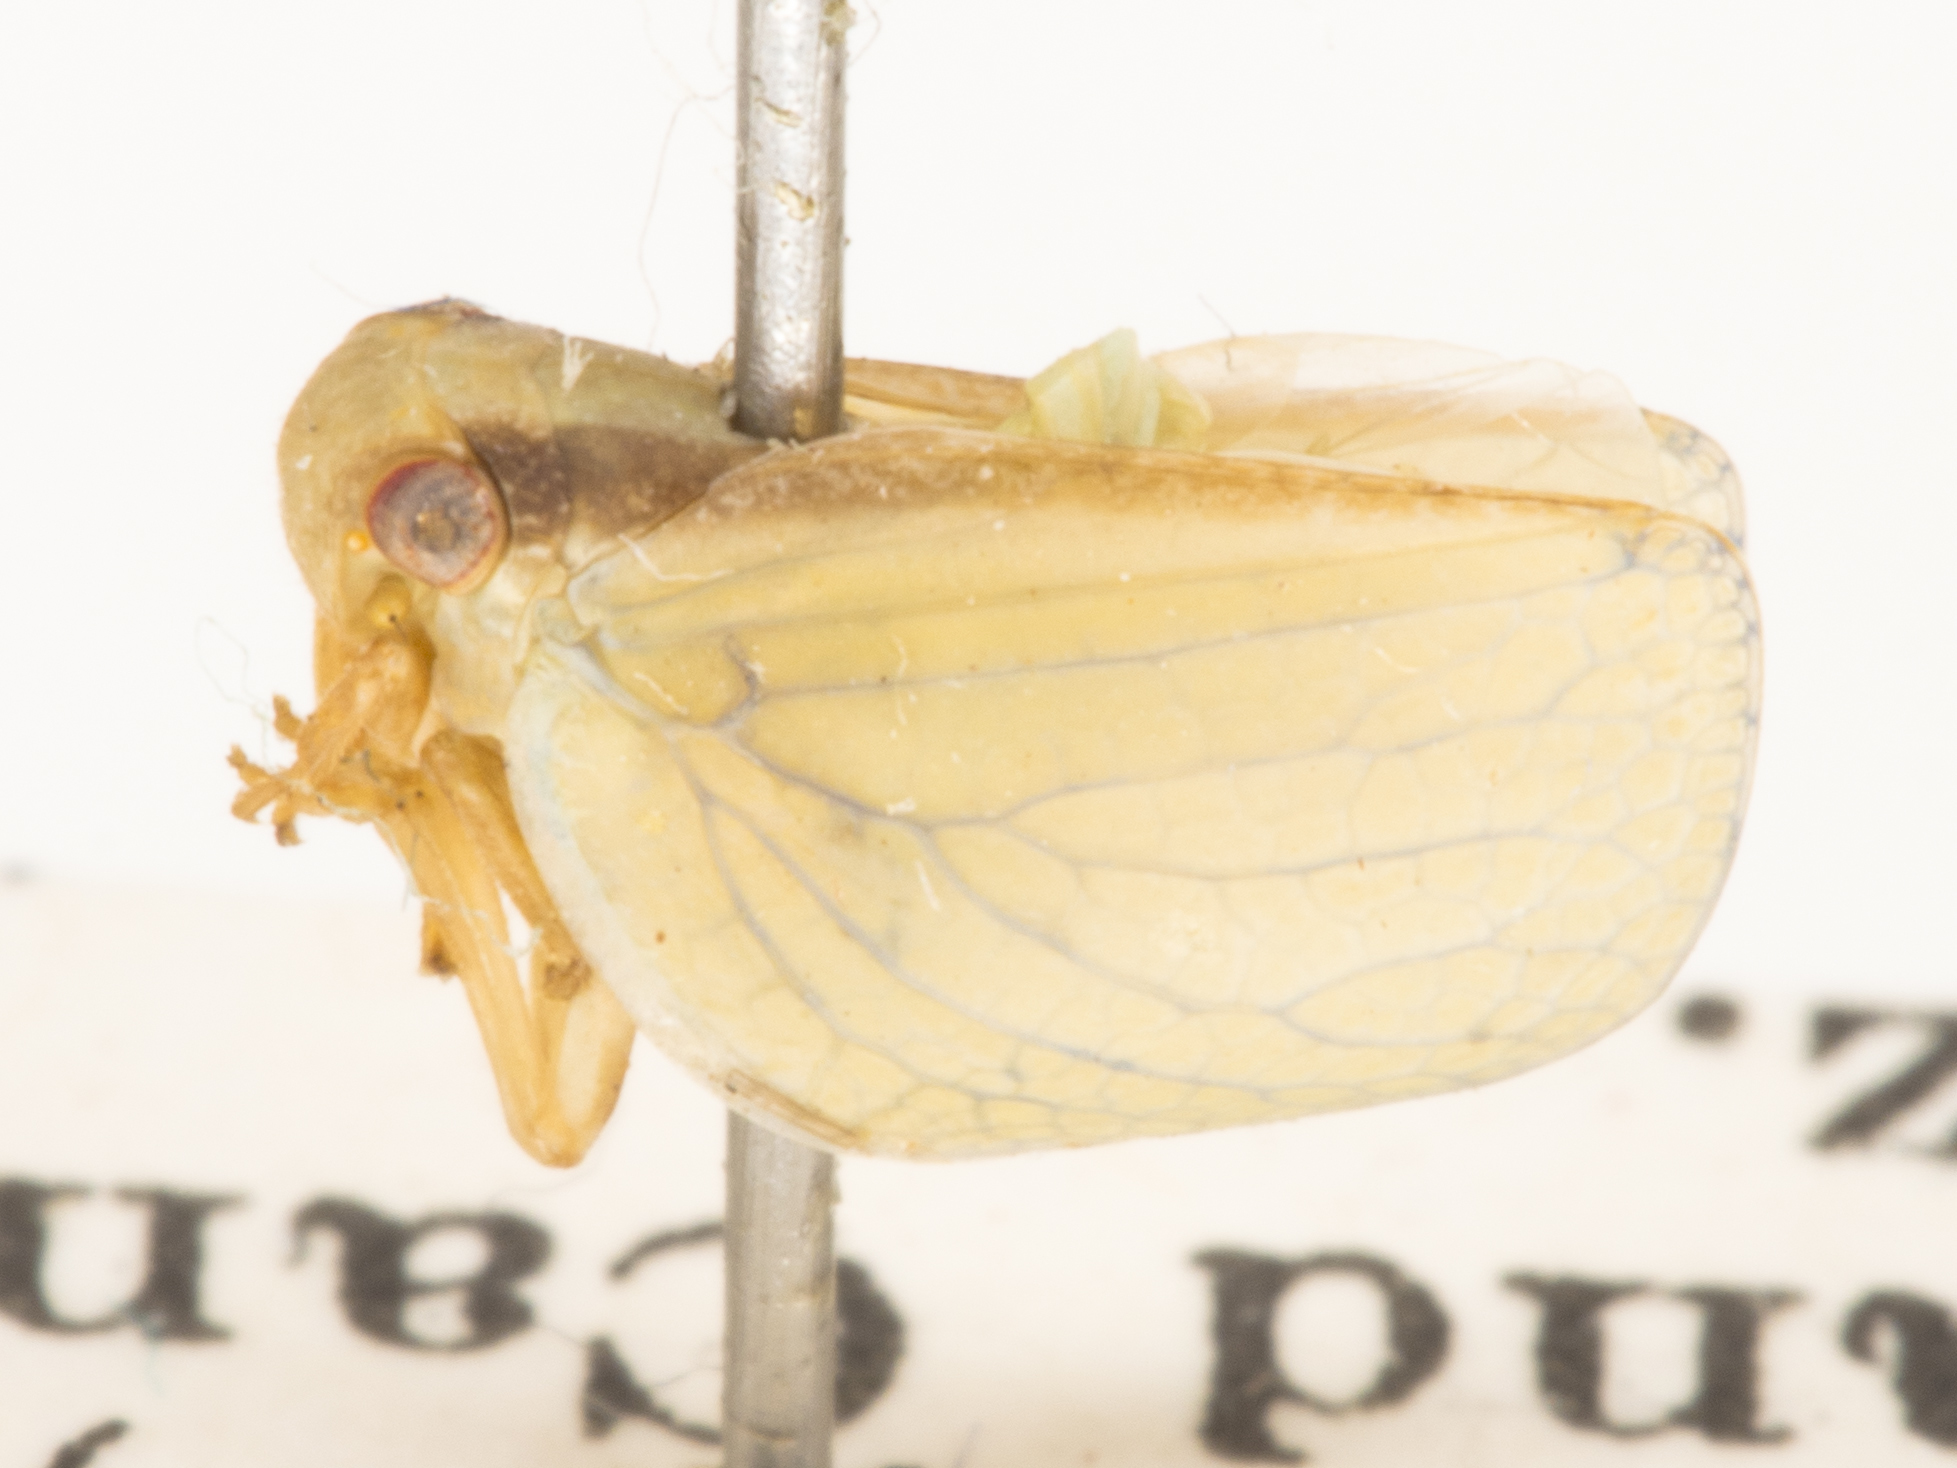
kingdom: Animalia
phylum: Arthropoda
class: Insecta
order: Hemiptera
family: Acanaloniidae
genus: Acanalonia
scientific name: Acanalonia fasciata
